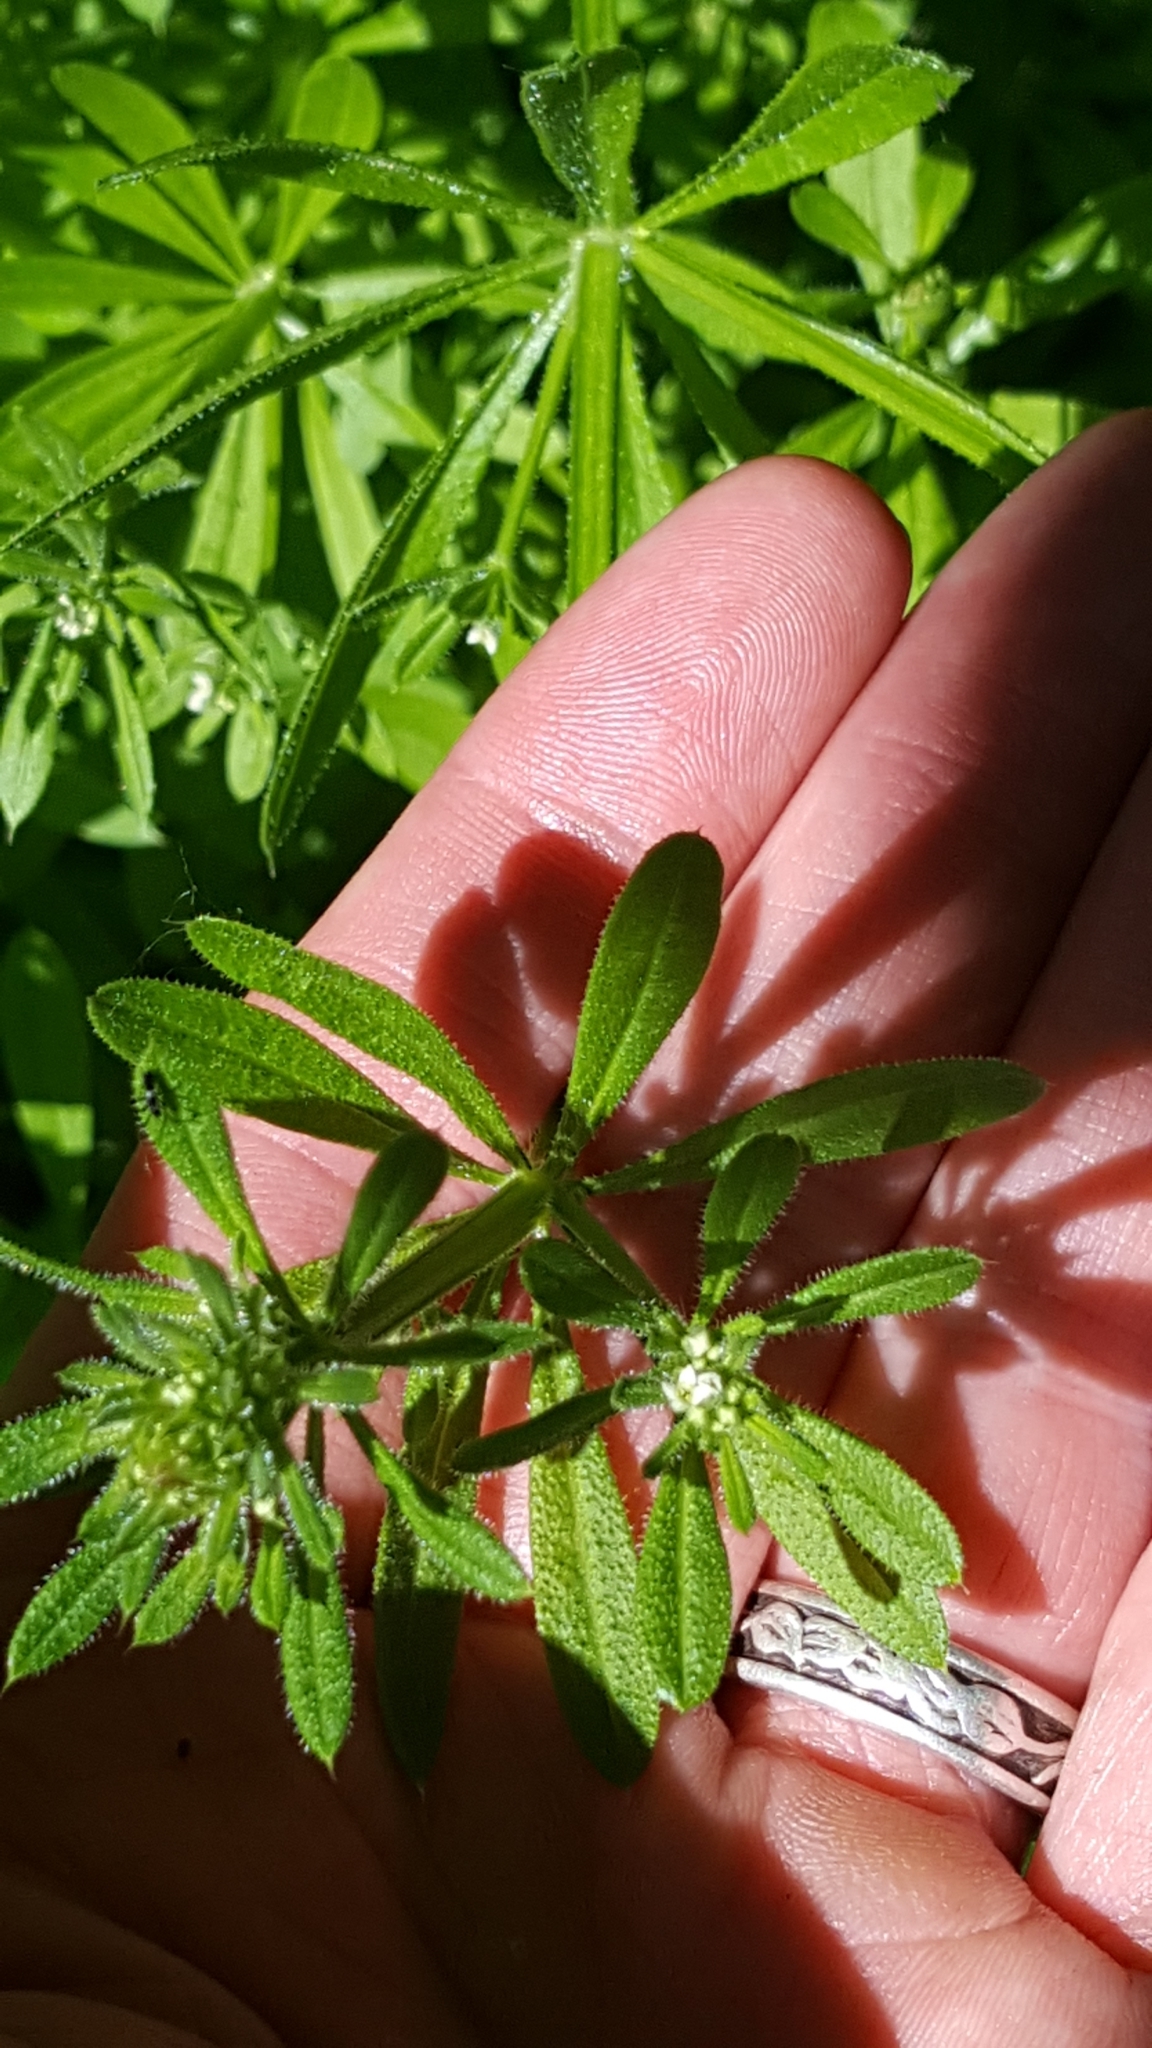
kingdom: Plantae
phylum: Tracheophyta
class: Magnoliopsida
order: Gentianales
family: Rubiaceae
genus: Galium
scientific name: Galium aparine
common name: Cleavers
